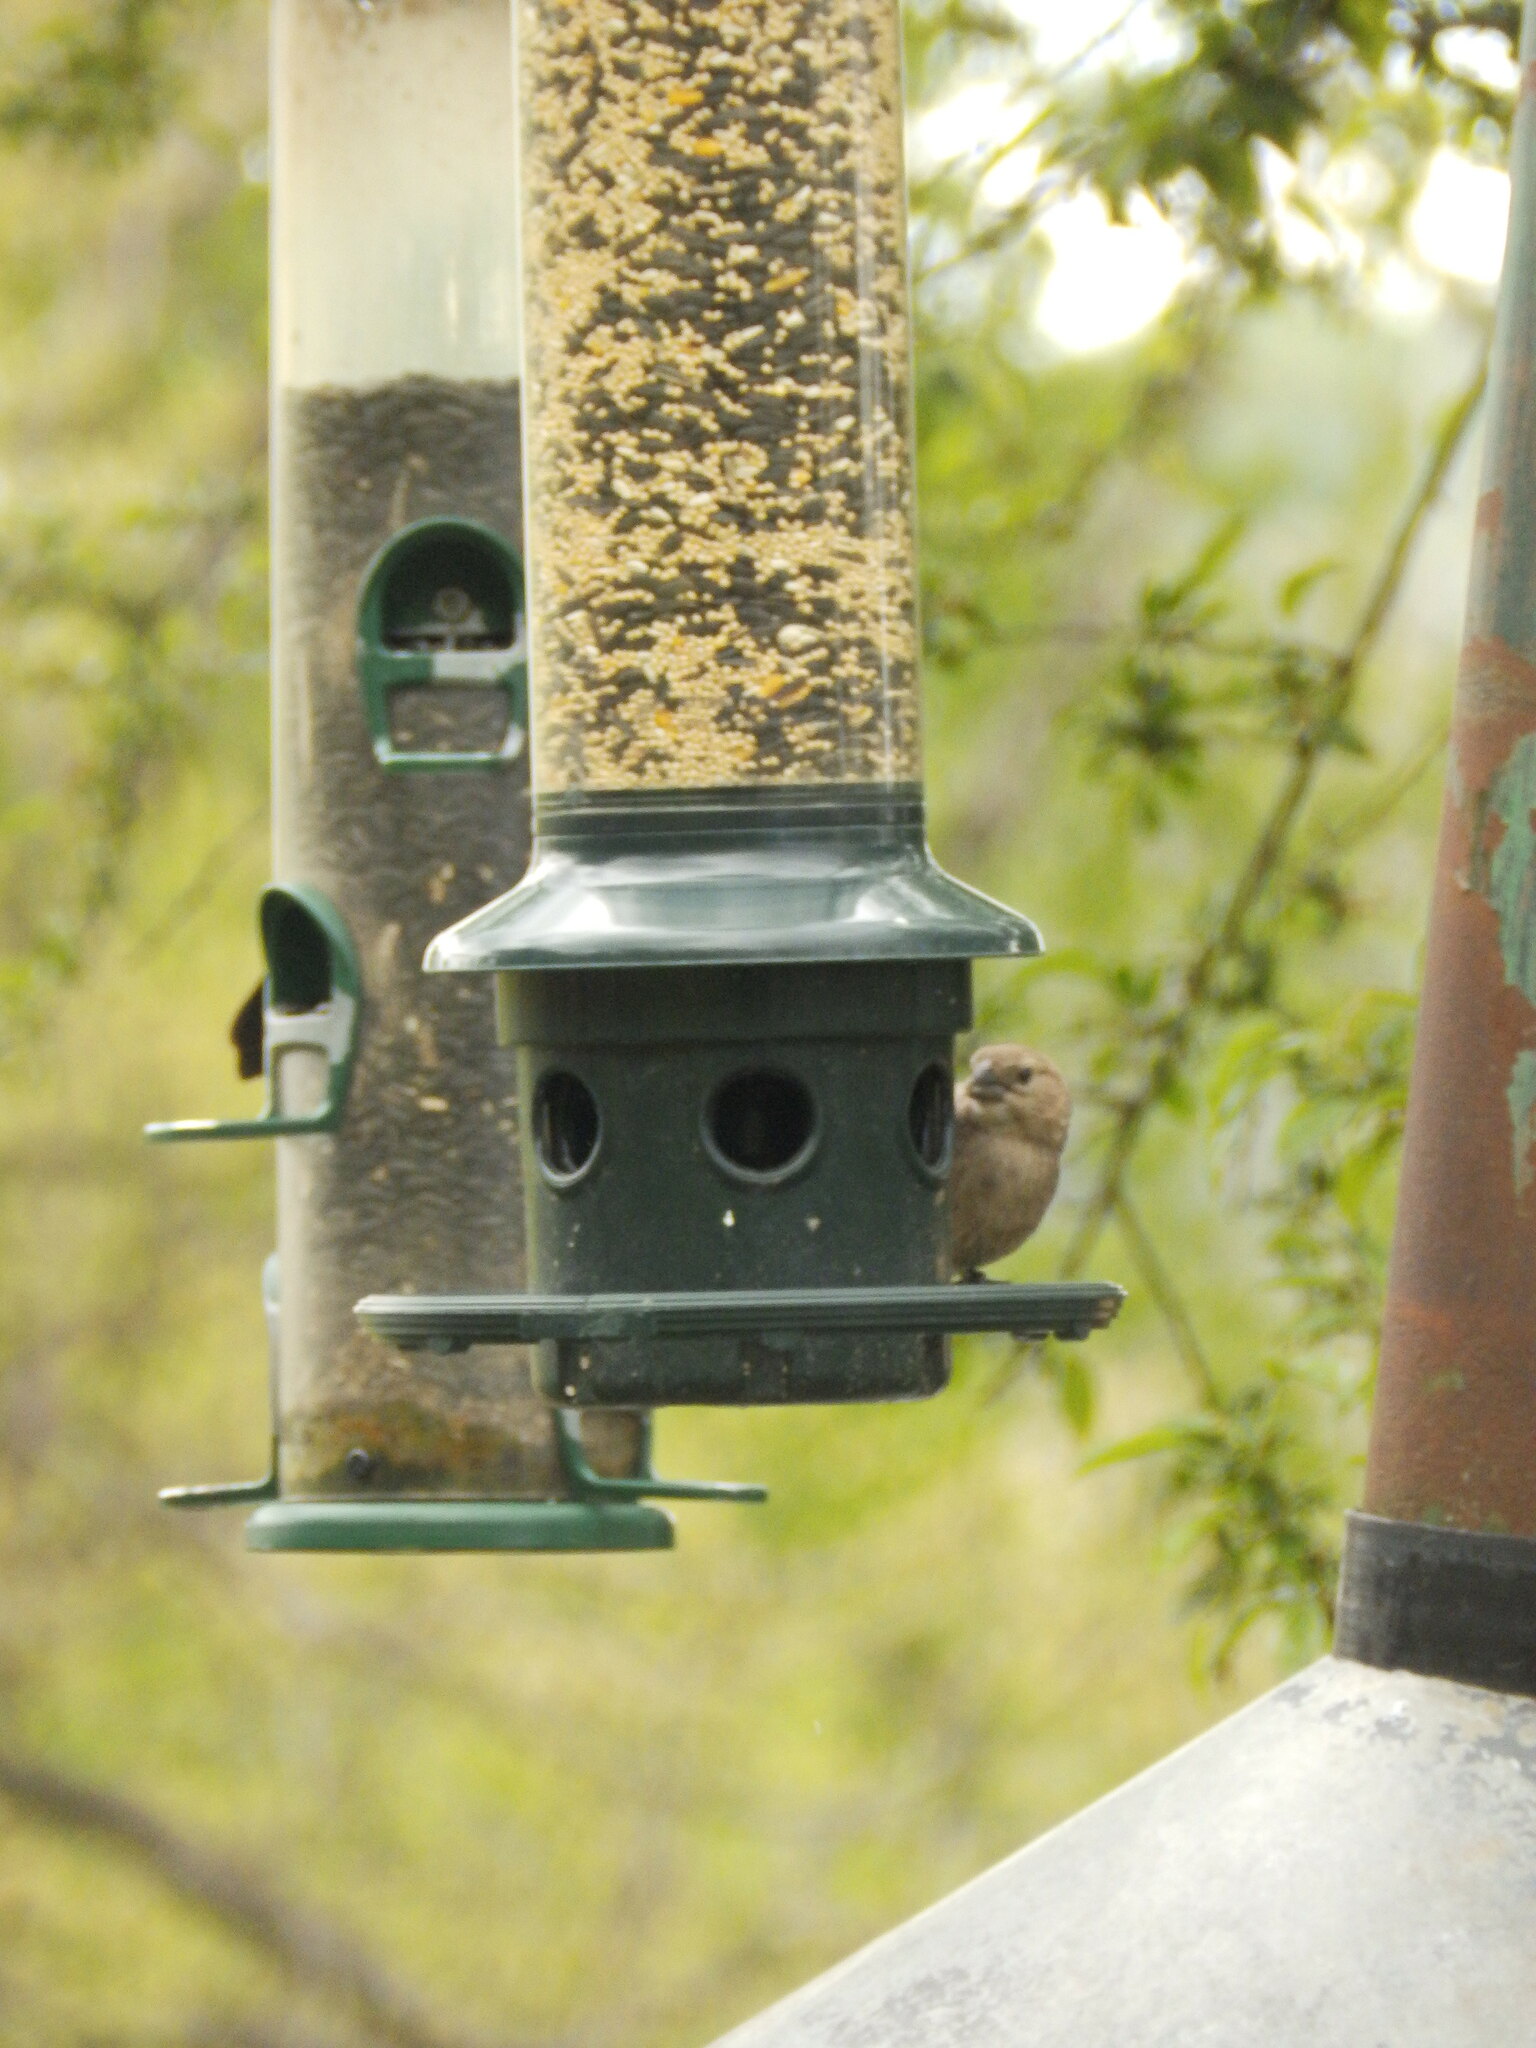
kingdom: Animalia
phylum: Chordata
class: Aves
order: Passeriformes
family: Icteridae
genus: Molothrus
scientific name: Molothrus ater
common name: Brown-headed cowbird
